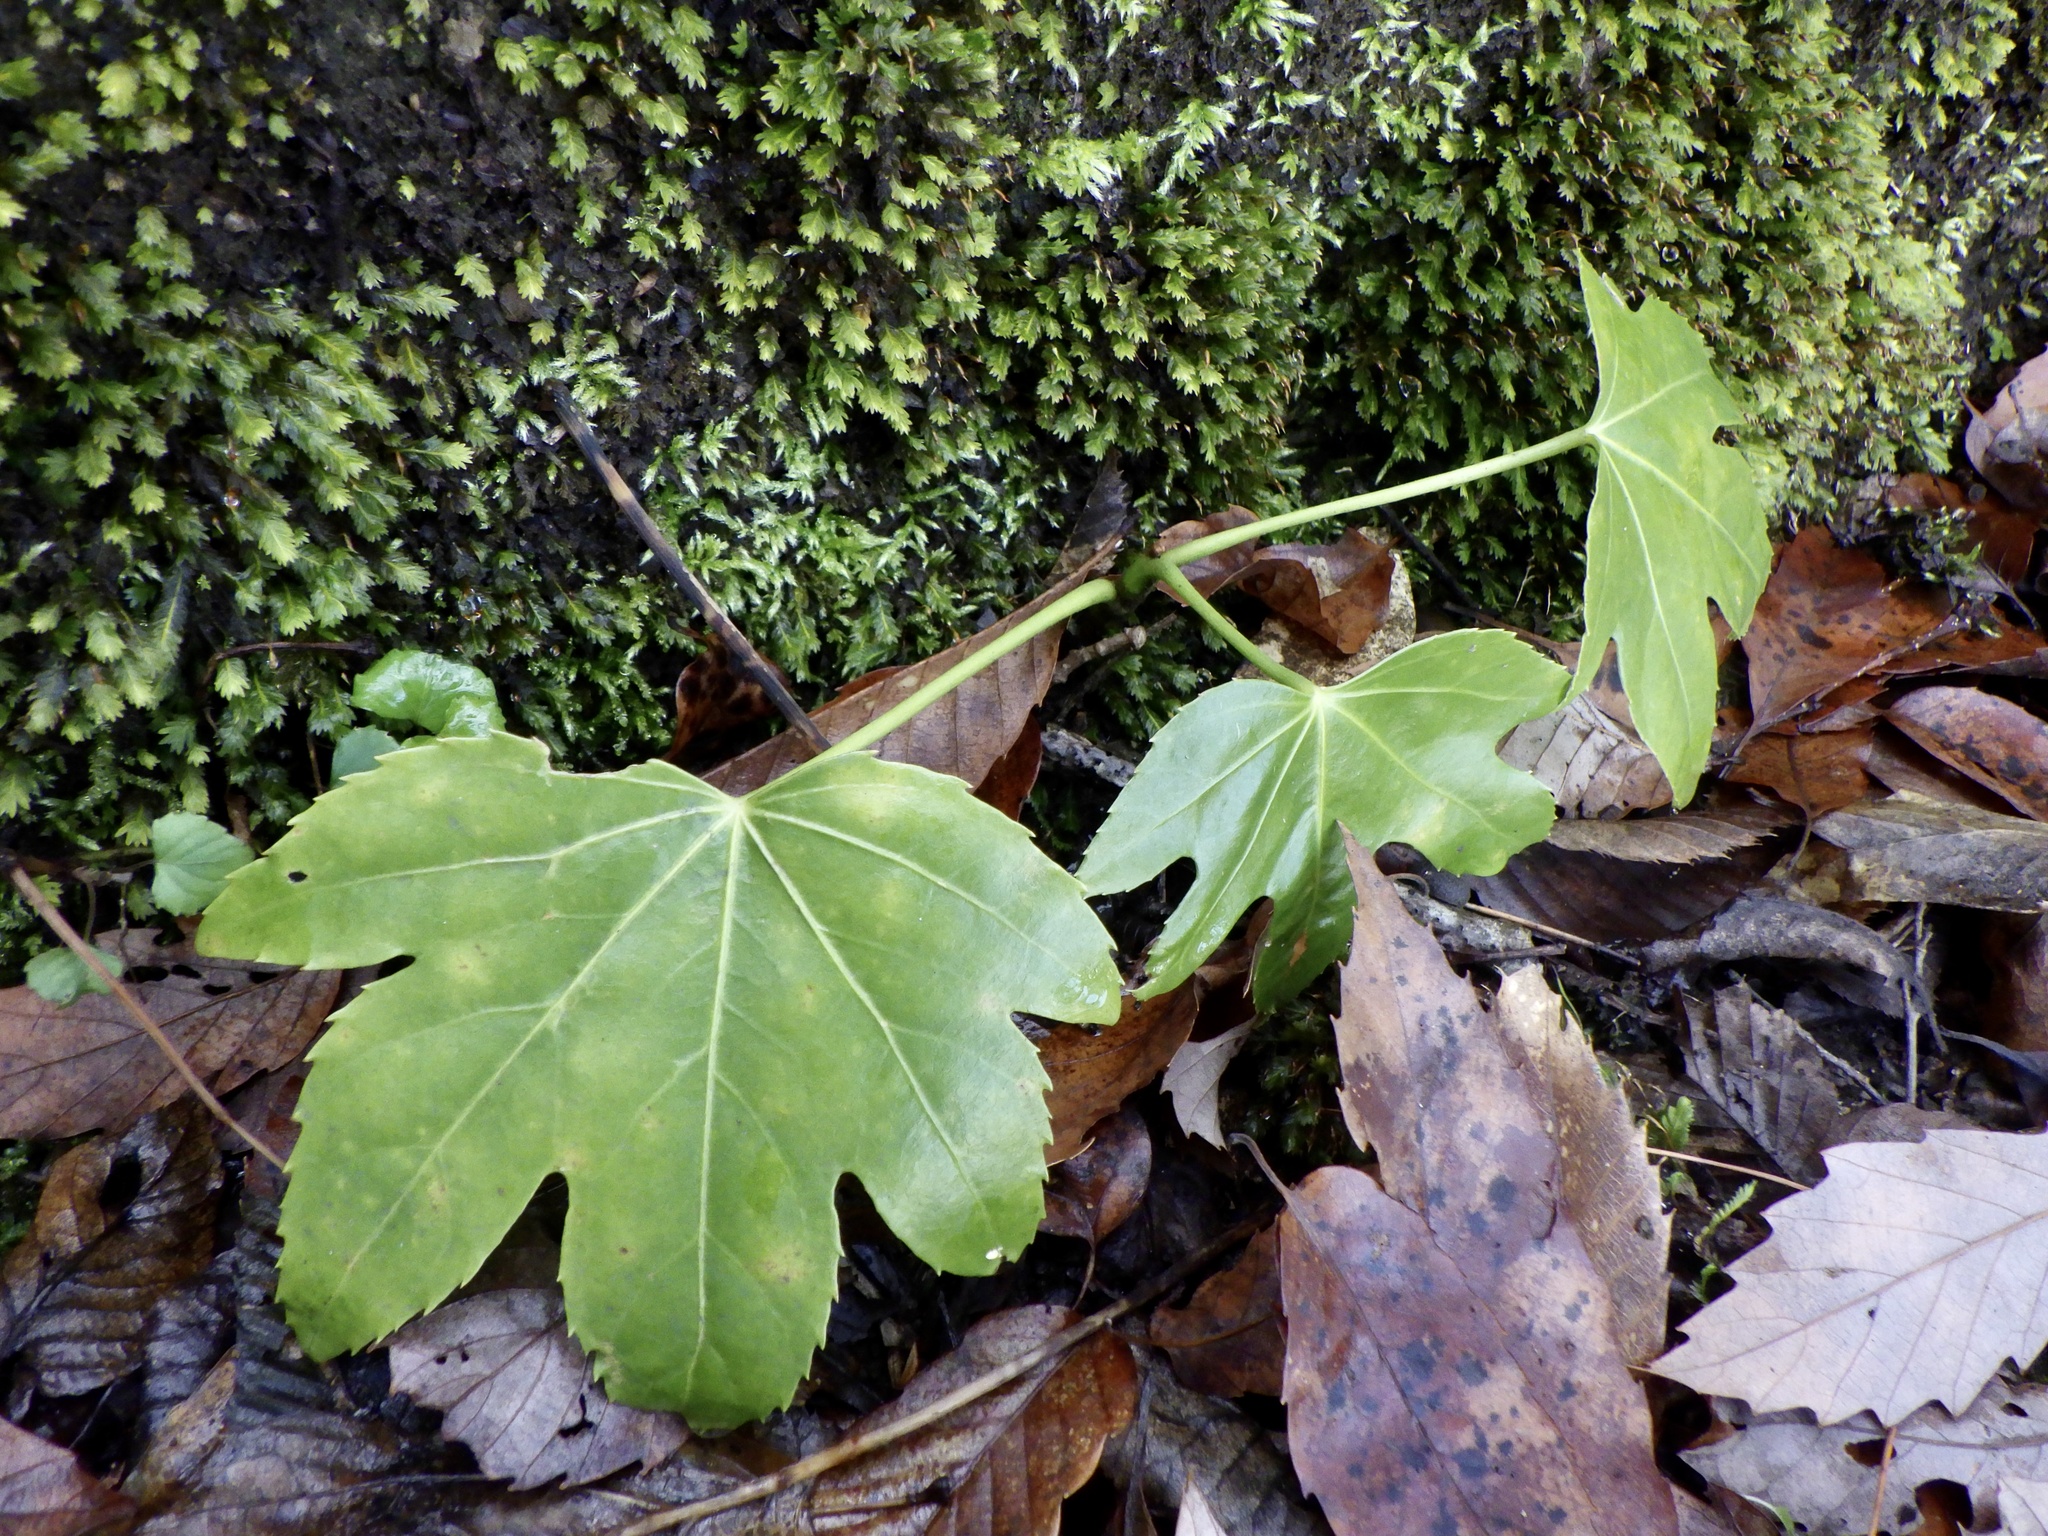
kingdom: Plantae
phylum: Tracheophyta
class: Magnoliopsida
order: Apiales
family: Araliaceae
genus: Fatsia
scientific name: Fatsia japonica
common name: Fatsia
